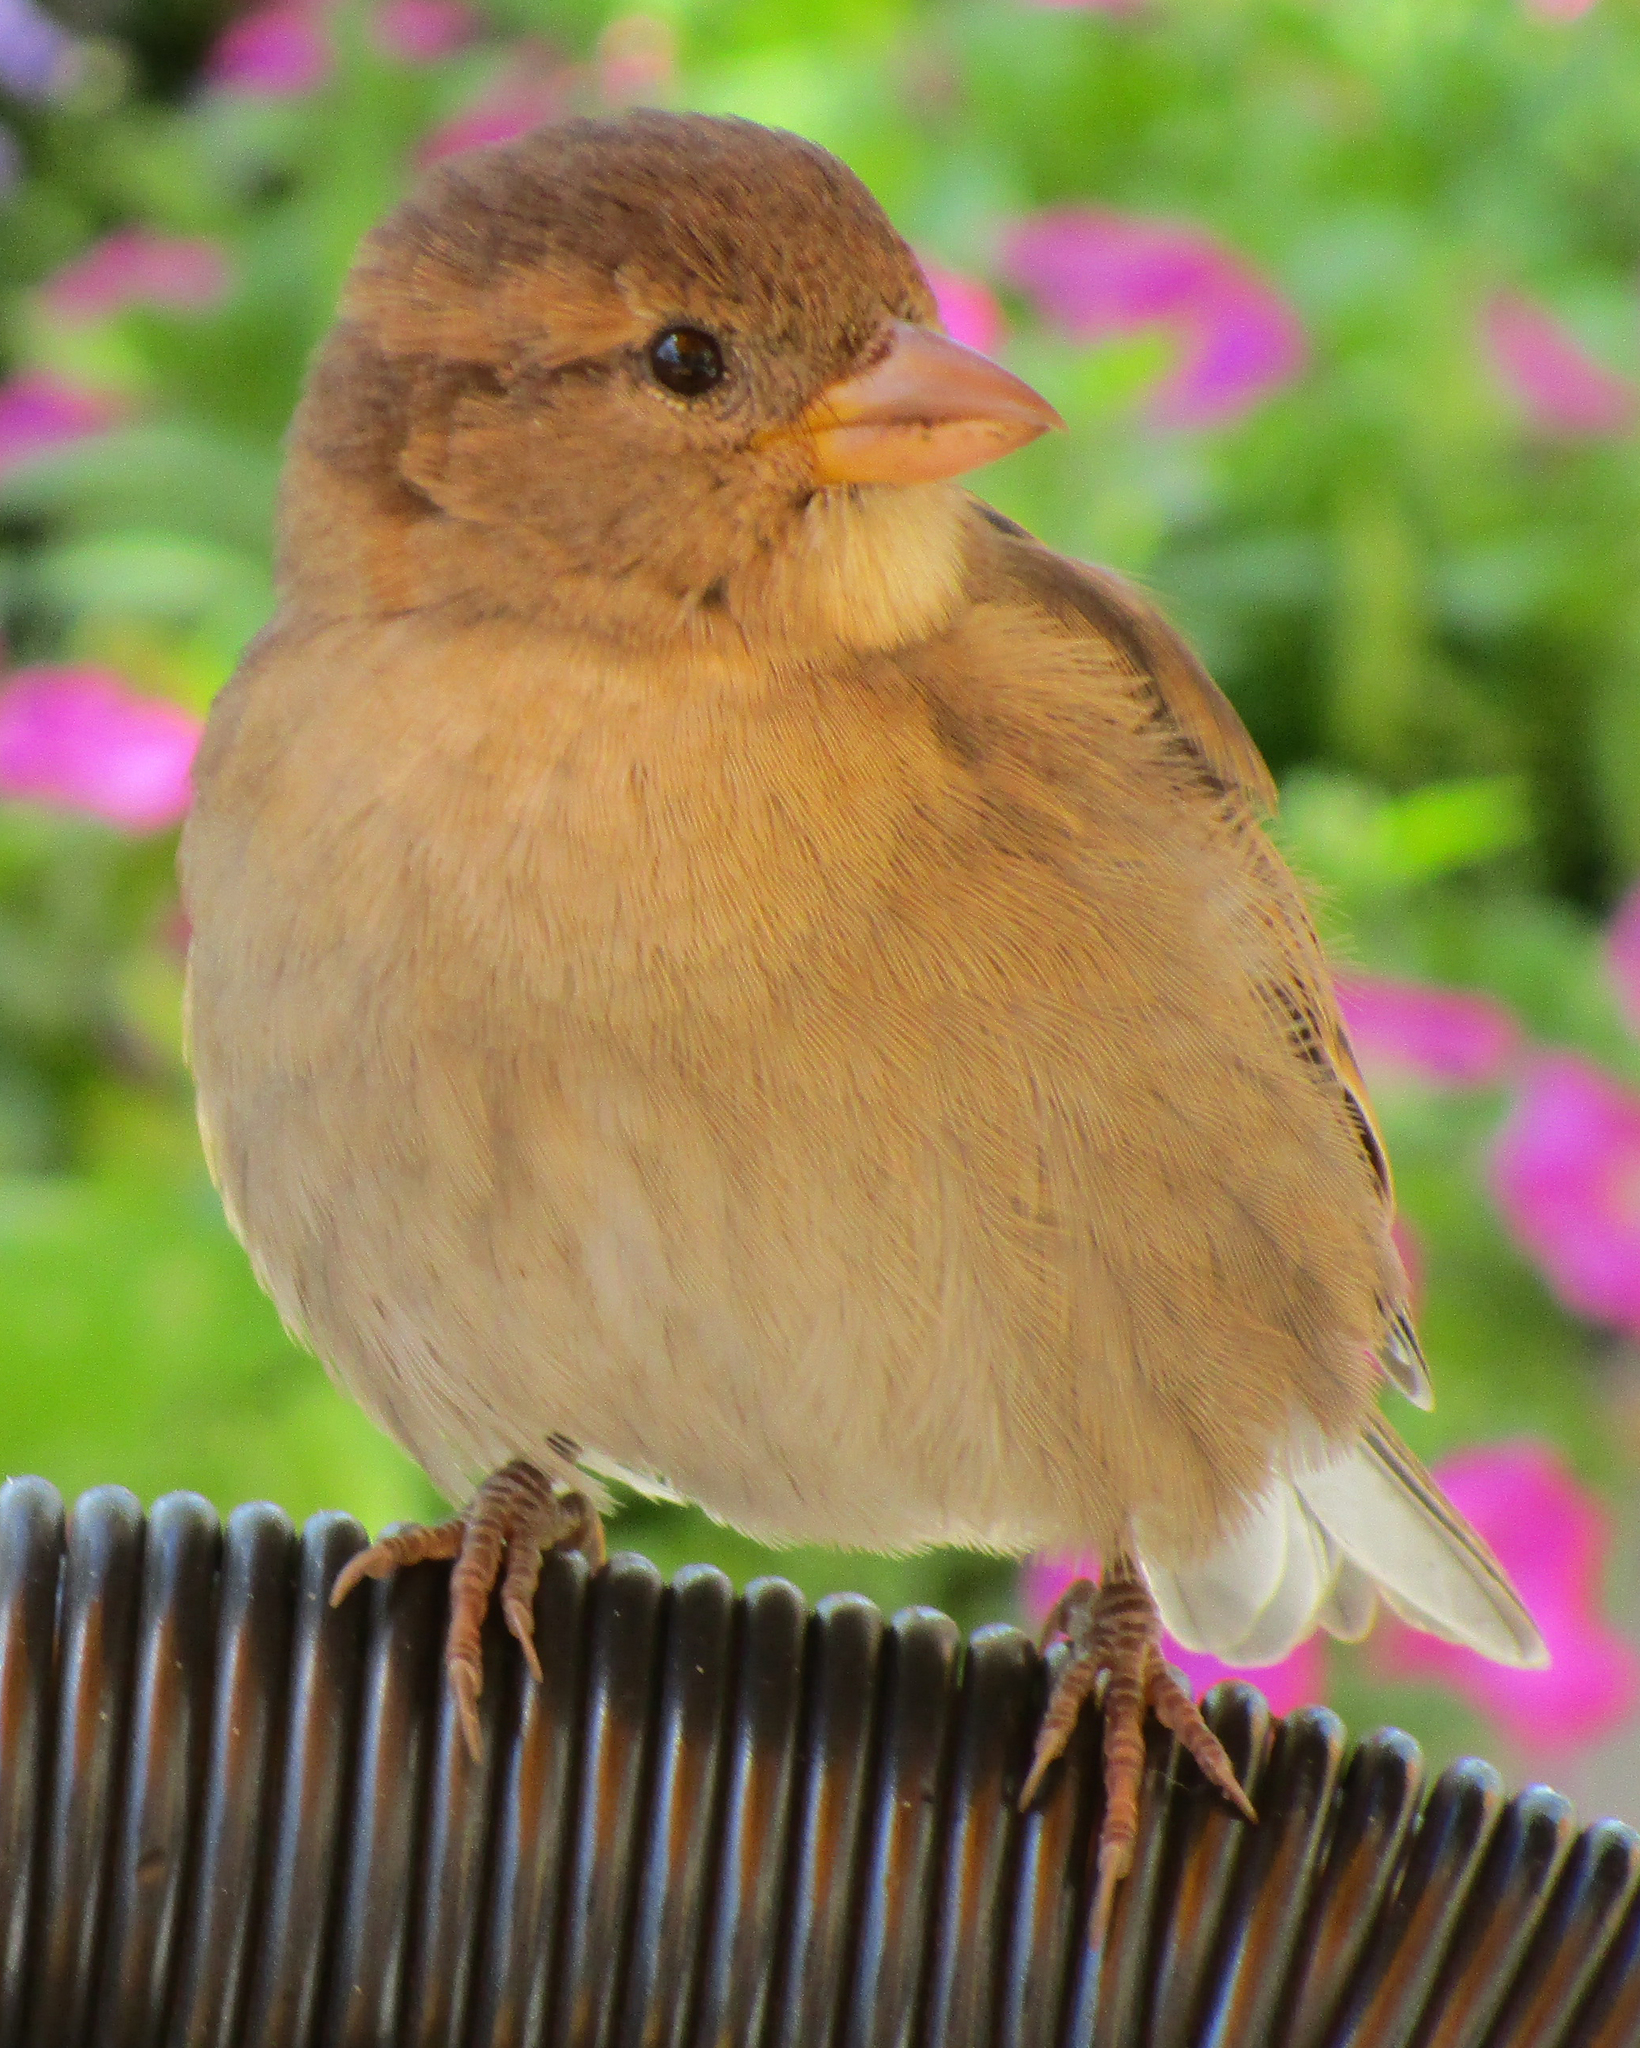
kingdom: Animalia
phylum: Chordata
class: Aves
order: Passeriformes
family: Passeridae
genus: Passer
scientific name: Passer domesticus
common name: House sparrow
